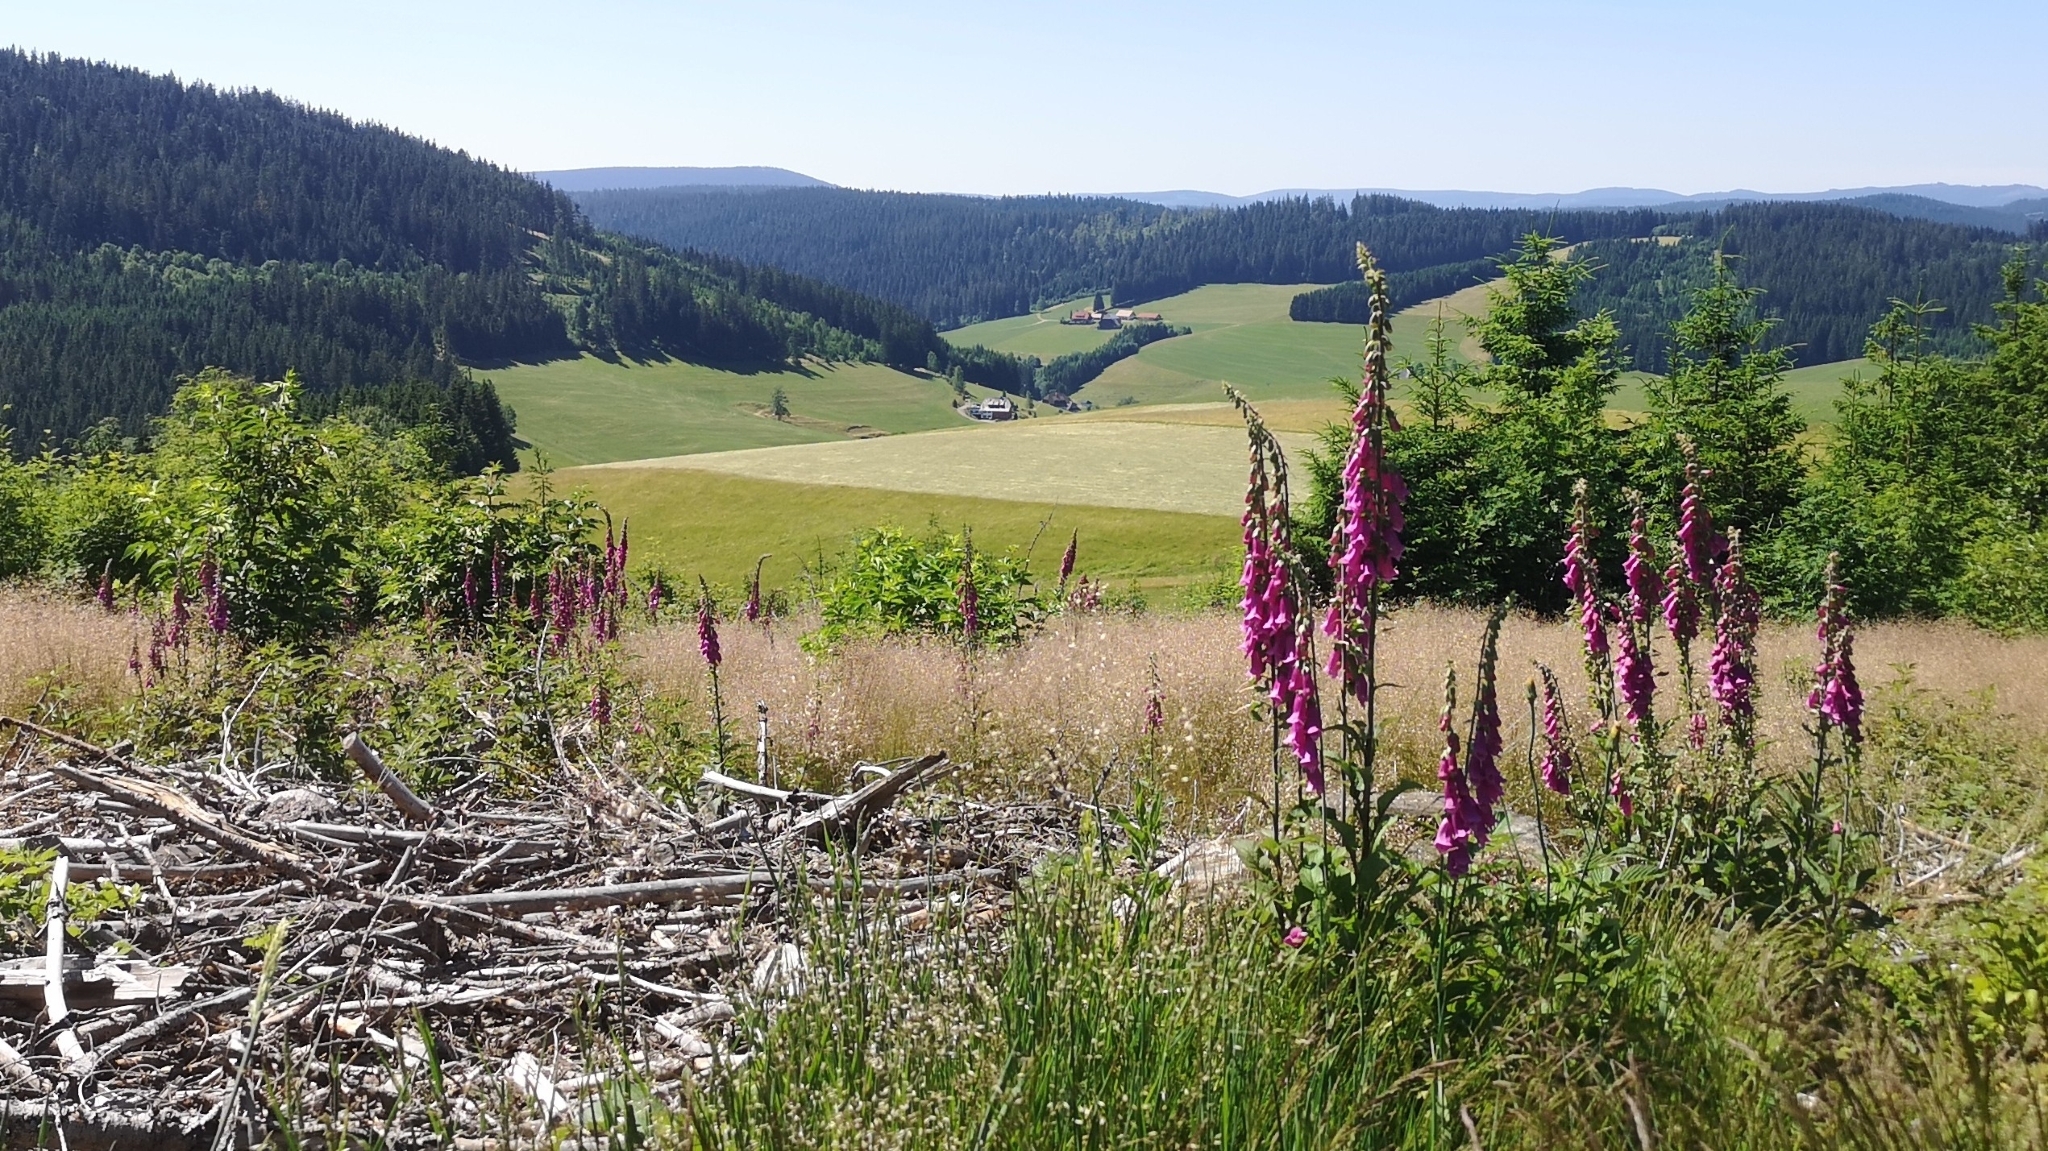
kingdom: Plantae
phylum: Tracheophyta
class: Magnoliopsida
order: Lamiales
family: Plantaginaceae
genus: Digitalis
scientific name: Digitalis purpurea
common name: Foxglove
